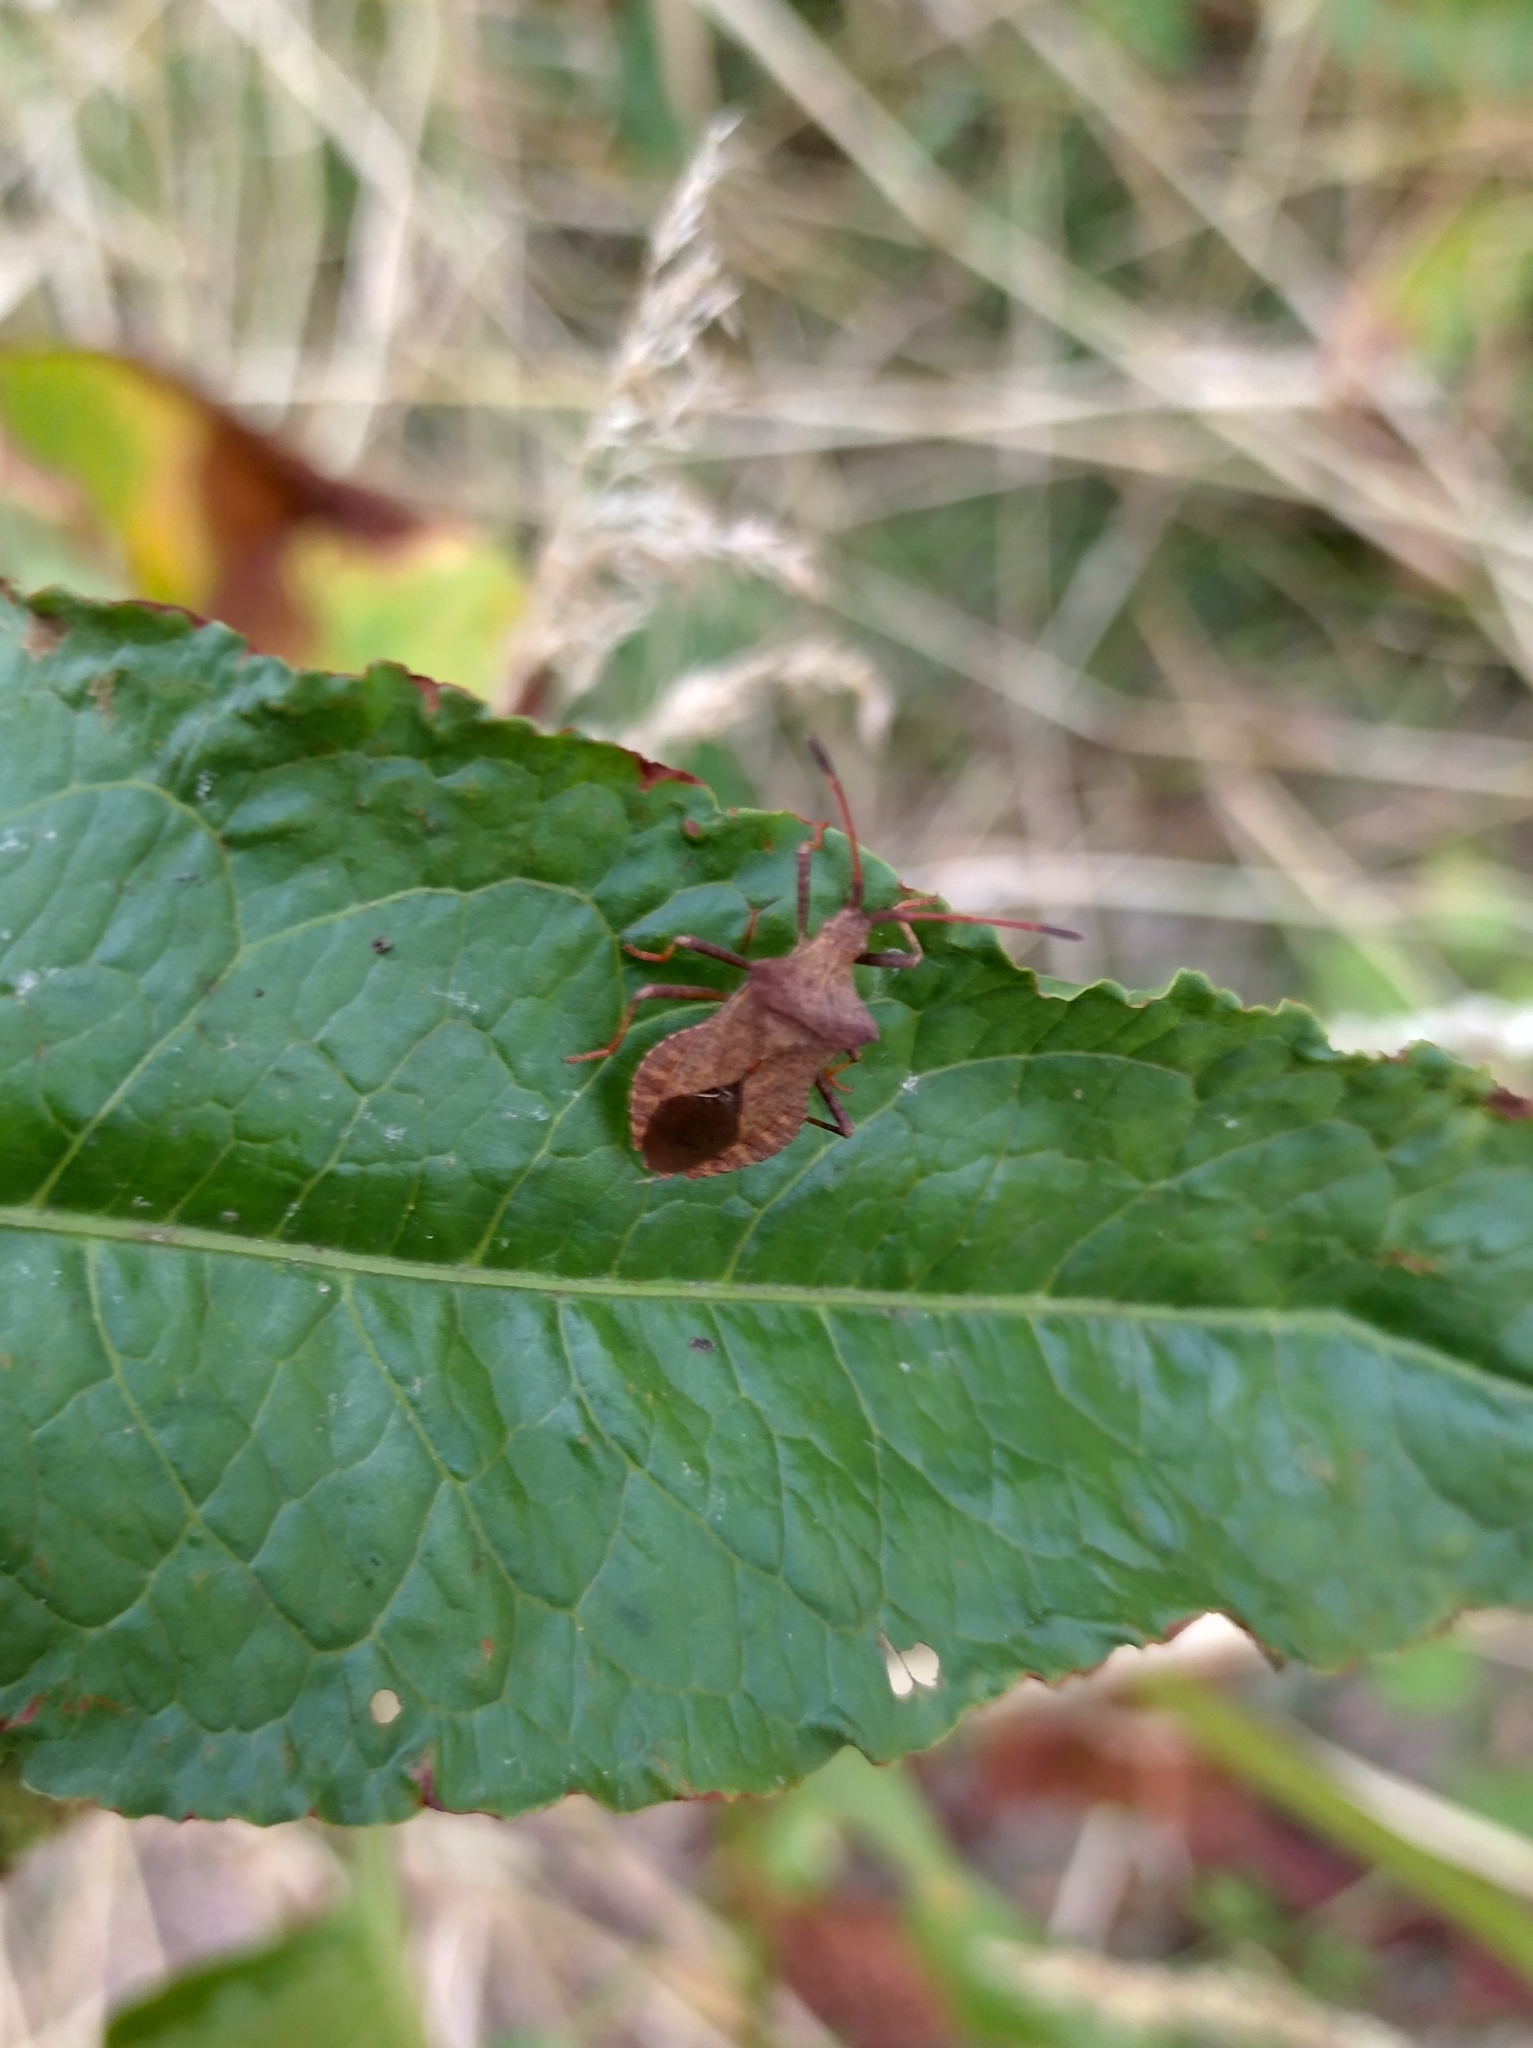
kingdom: Animalia
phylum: Arthropoda
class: Insecta
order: Hemiptera
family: Coreidae
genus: Coreus
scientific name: Coreus marginatus
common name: Dock bug
